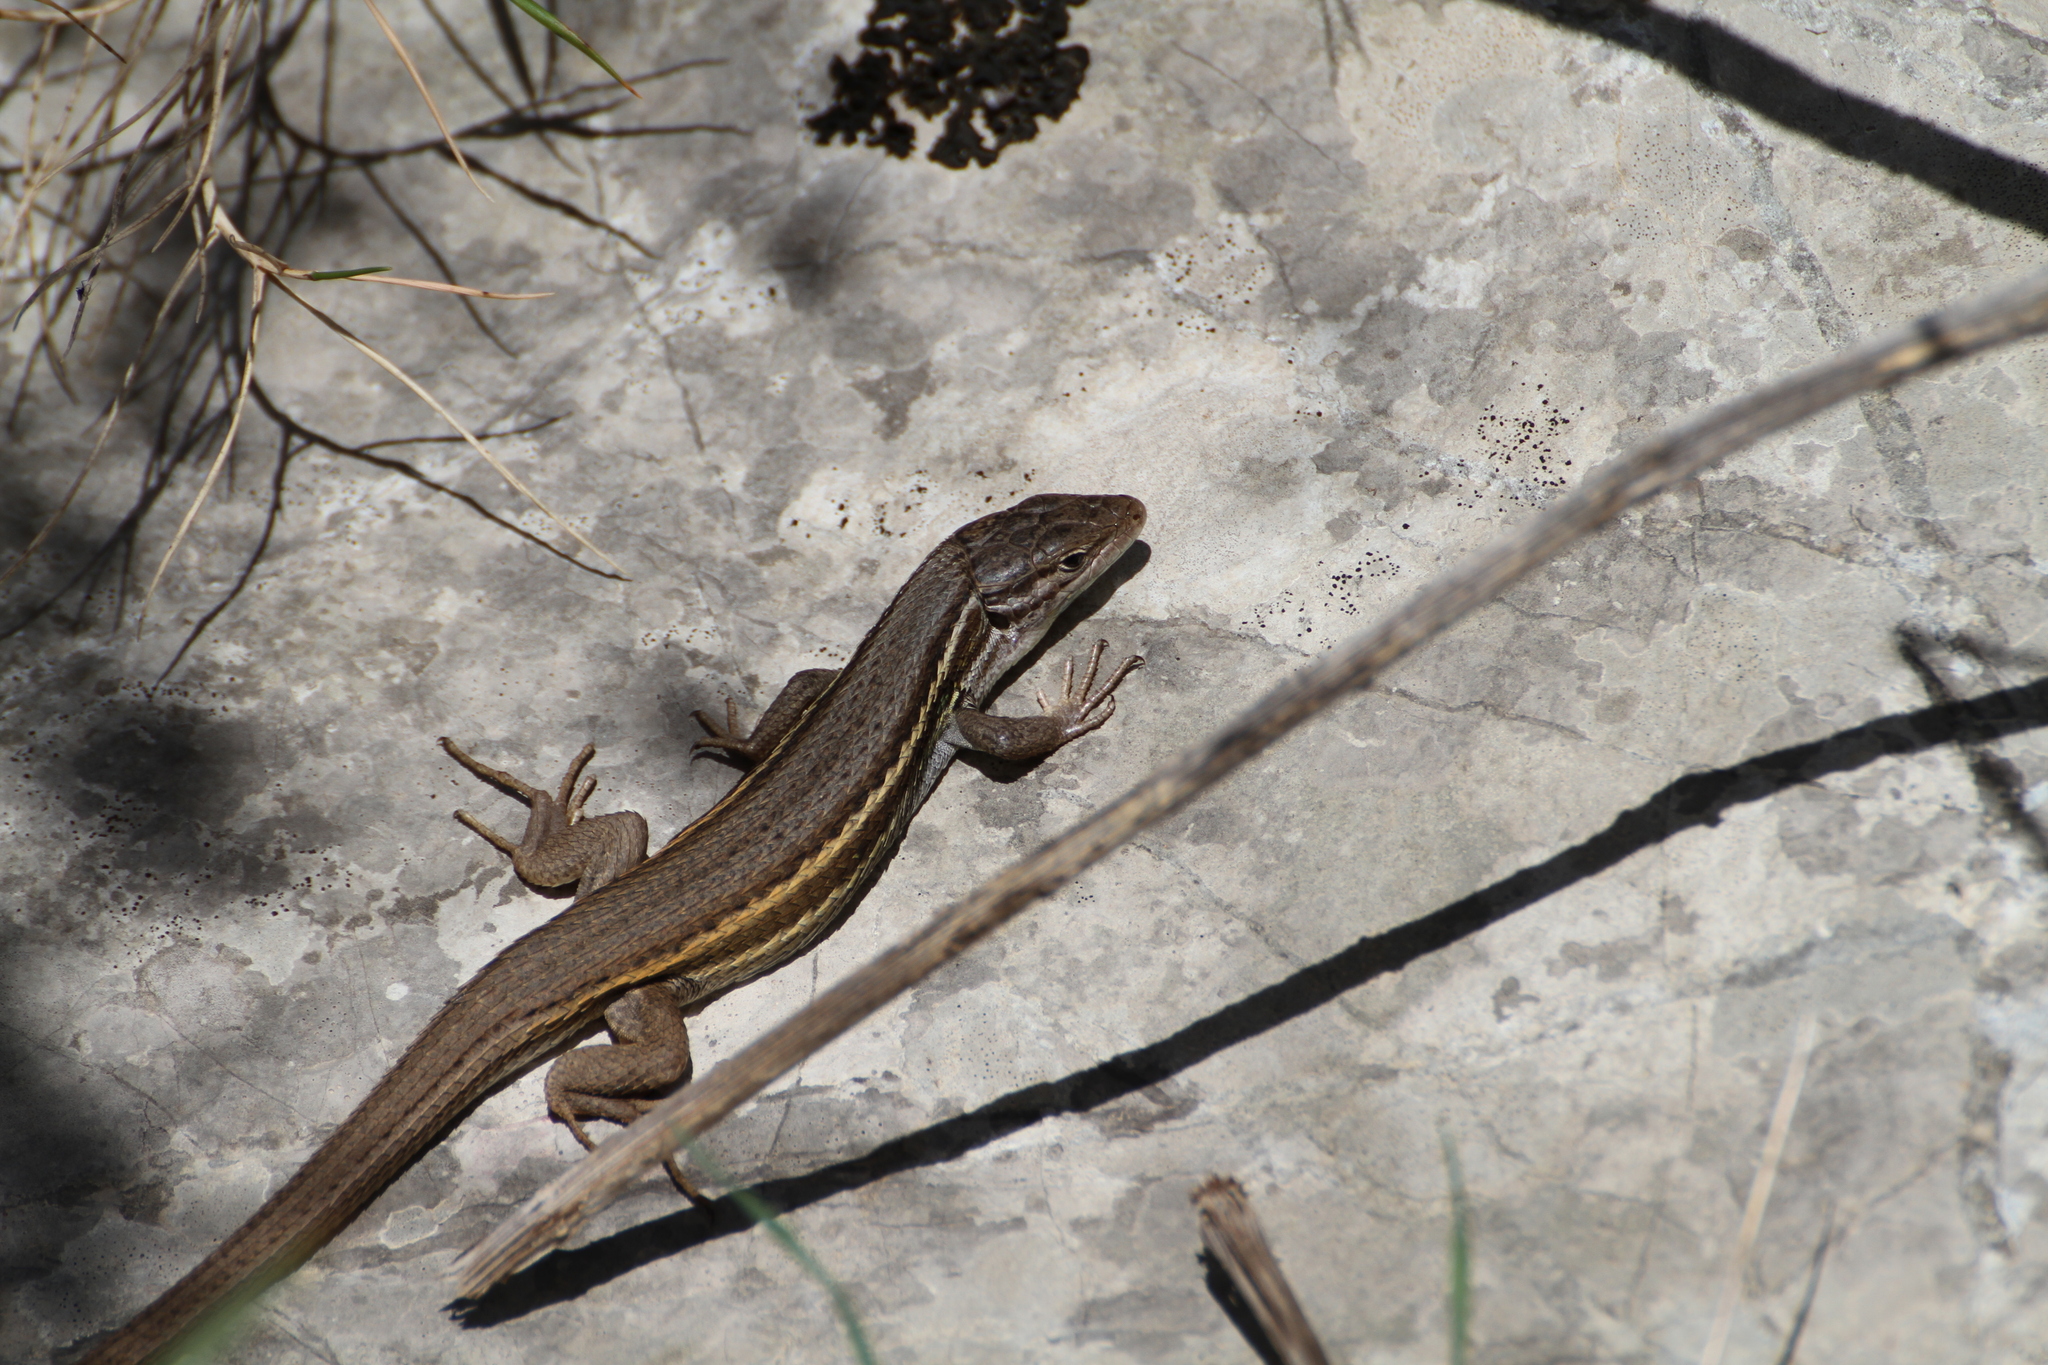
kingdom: Animalia
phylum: Chordata
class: Squamata
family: Lacertidae
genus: Psammodromus
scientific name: Psammodromus algirus
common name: Algerian psammodromus
